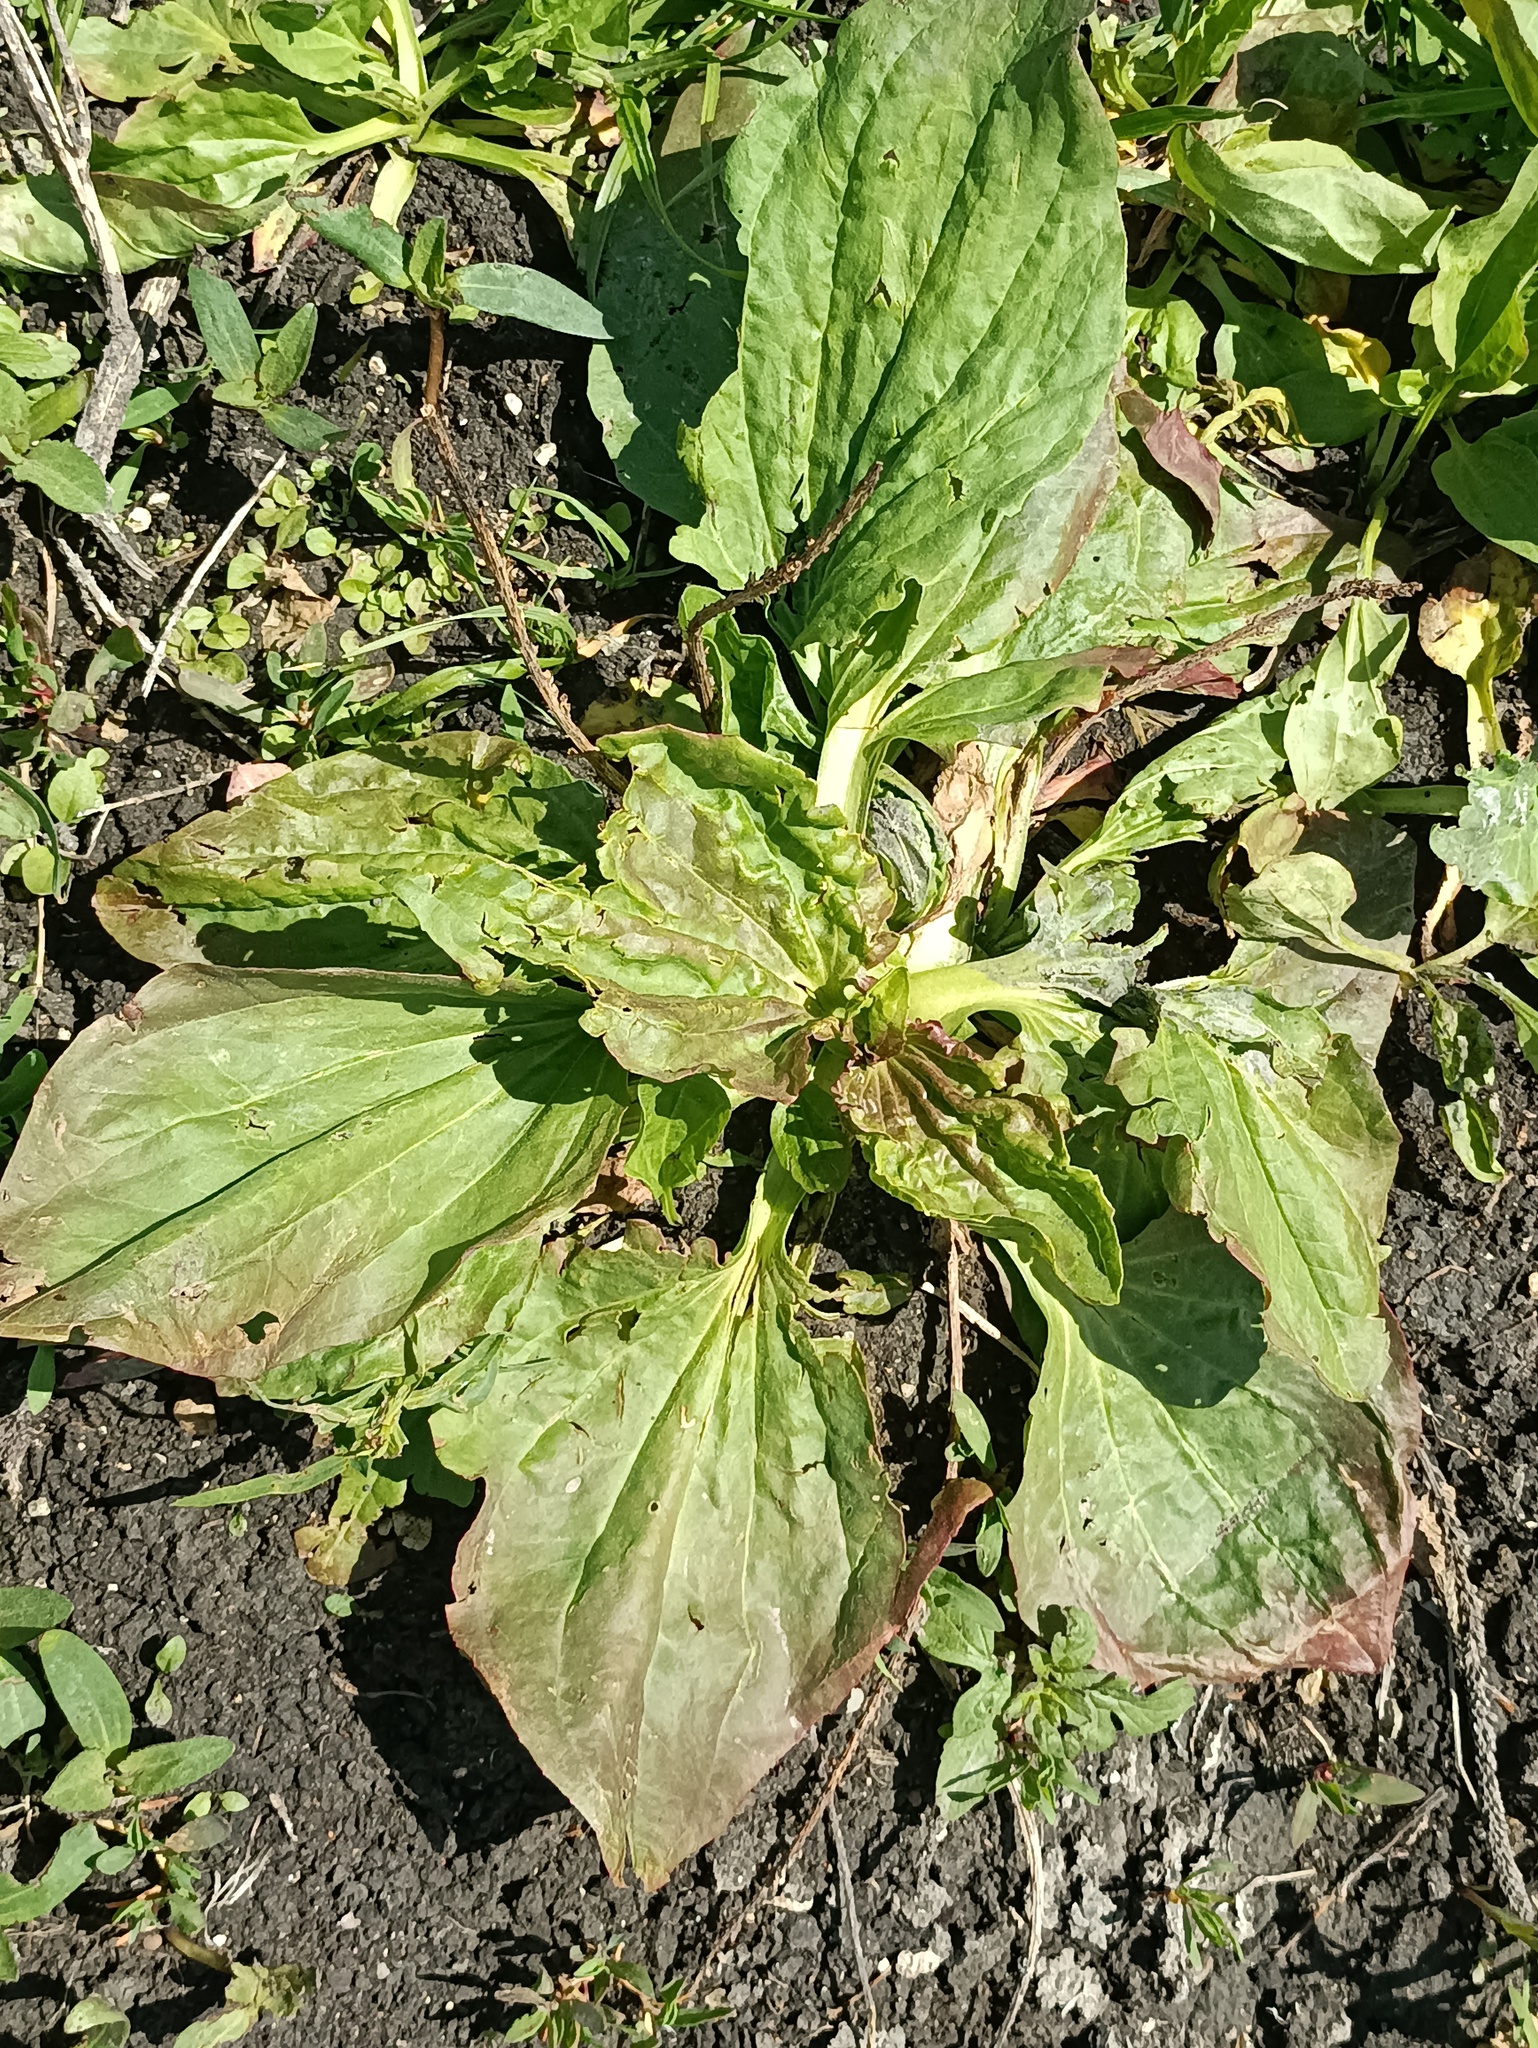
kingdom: Plantae
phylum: Tracheophyta
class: Magnoliopsida
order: Lamiales
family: Plantaginaceae
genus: Plantago
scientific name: Plantago major
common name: Common plantain
